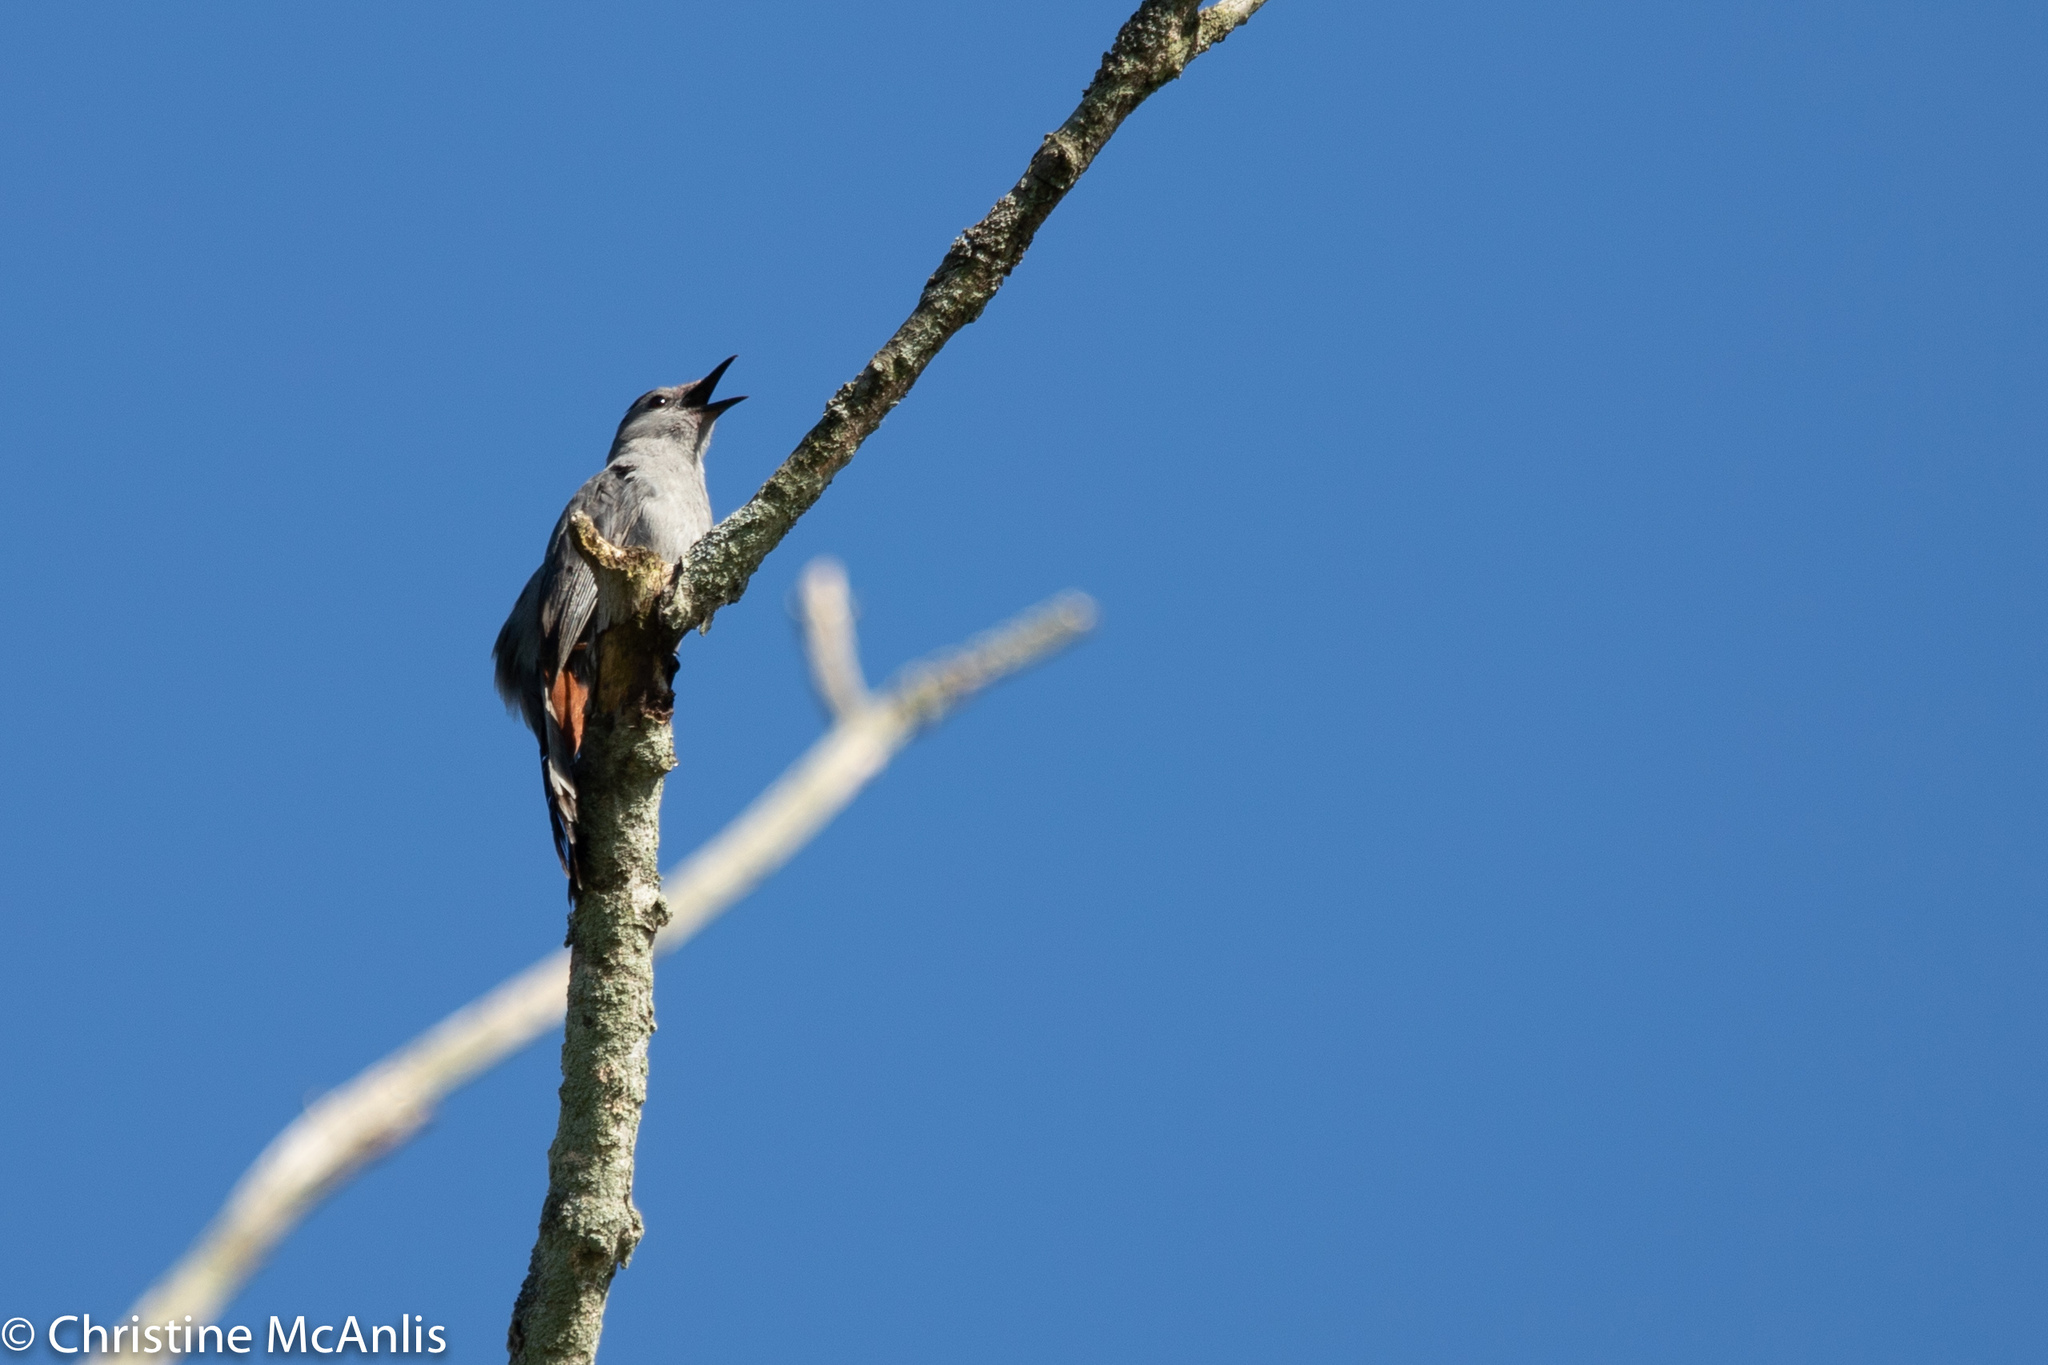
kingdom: Animalia
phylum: Chordata
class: Aves
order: Passeriformes
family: Mimidae
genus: Dumetella
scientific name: Dumetella carolinensis
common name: Gray catbird
